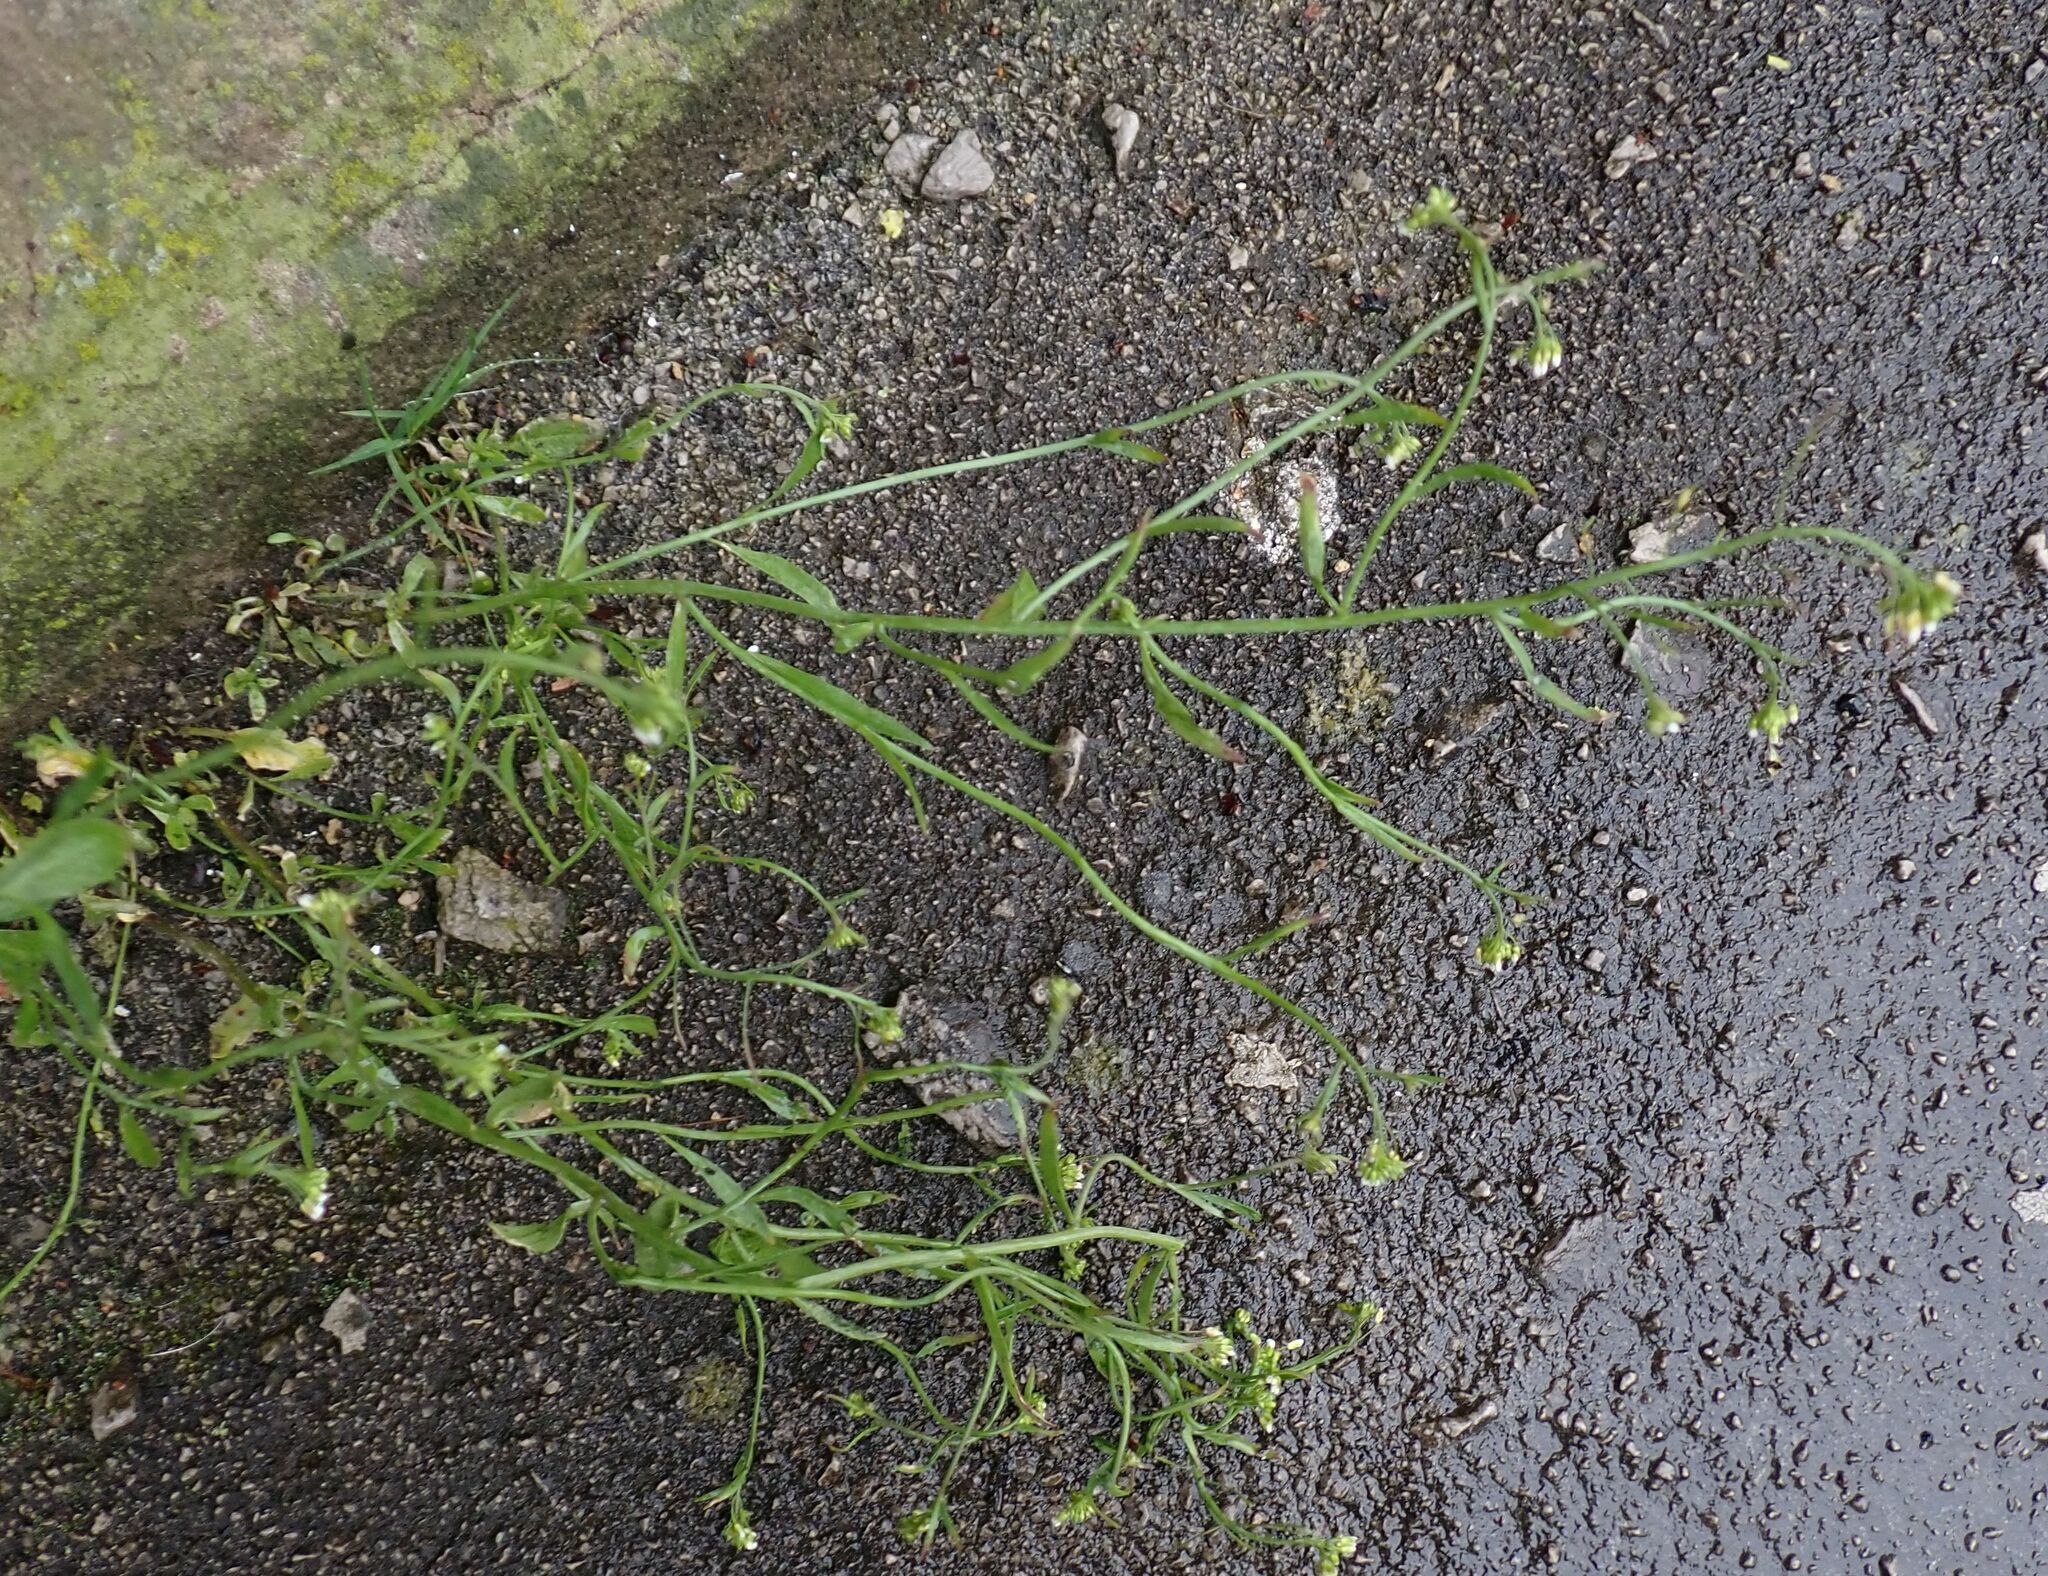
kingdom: Plantae
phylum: Tracheophyta
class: Magnoliopsida
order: Brassicales
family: Brassicaceae
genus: Arabidopsis
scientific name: Arabidopsis thaliana
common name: Thale cress
